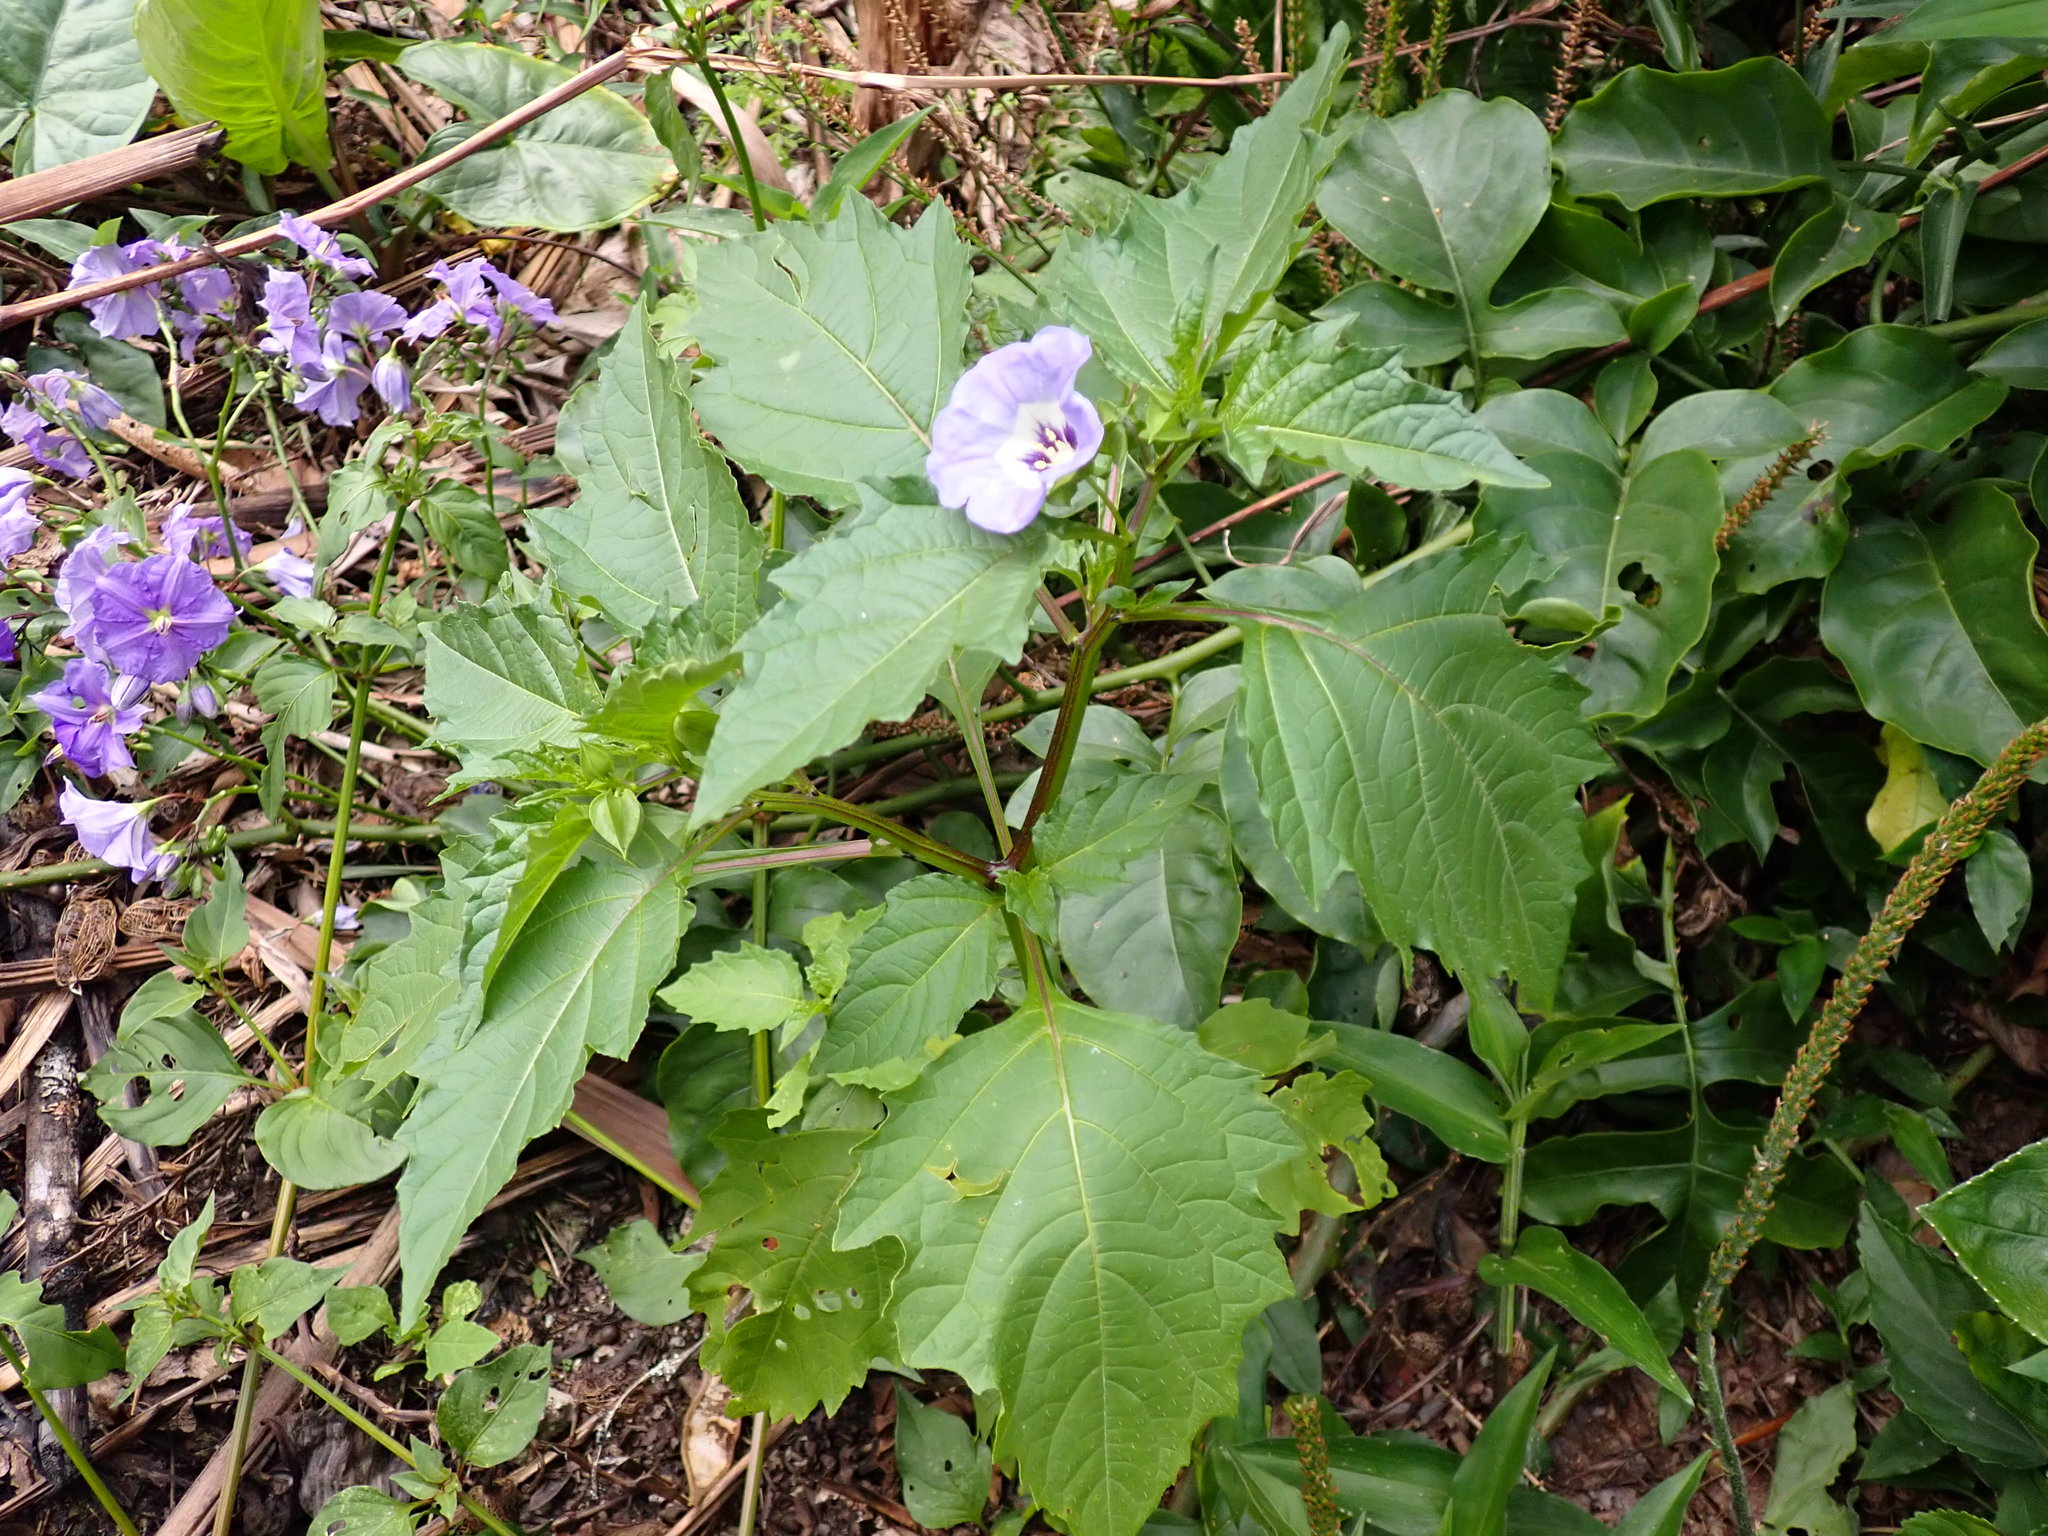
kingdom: Plantae
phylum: Tracheophyta
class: Magnoliopsida
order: Solanales
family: Solanaceae
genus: Nicandra
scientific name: Nicandra physalodes
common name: Apple-of-peru
